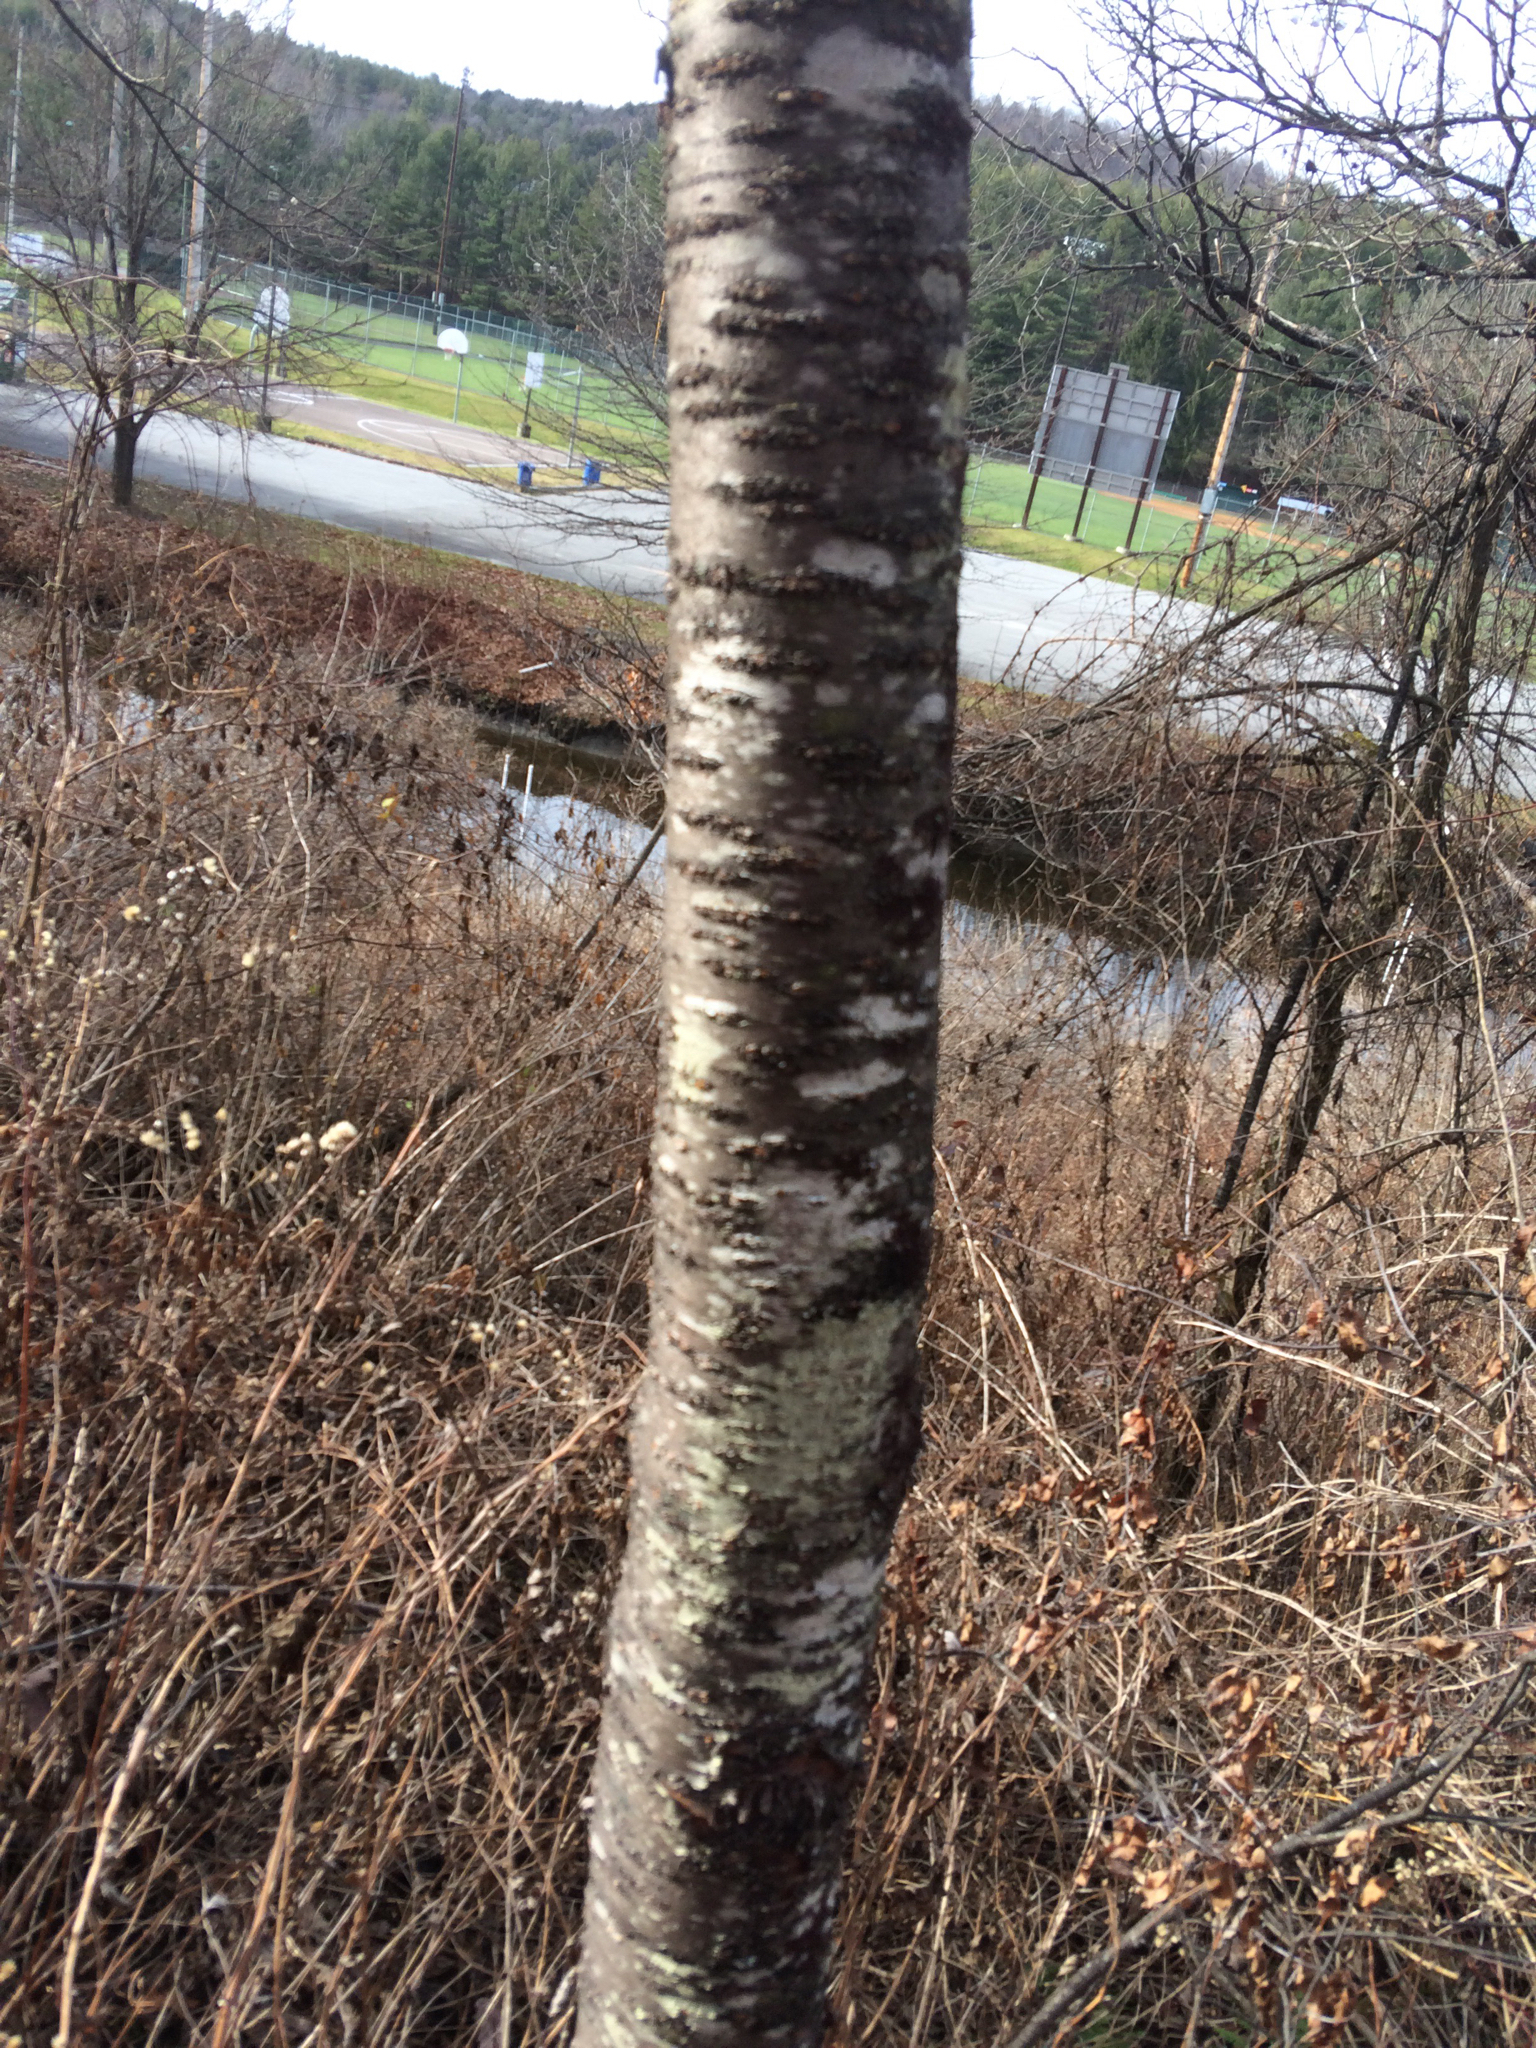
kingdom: Plantae
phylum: Tracheophyta
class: Magnoliopsida
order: Rosales
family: Rosaceae
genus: Prunus
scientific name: Prunus pensylvanica
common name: Pin cherry
